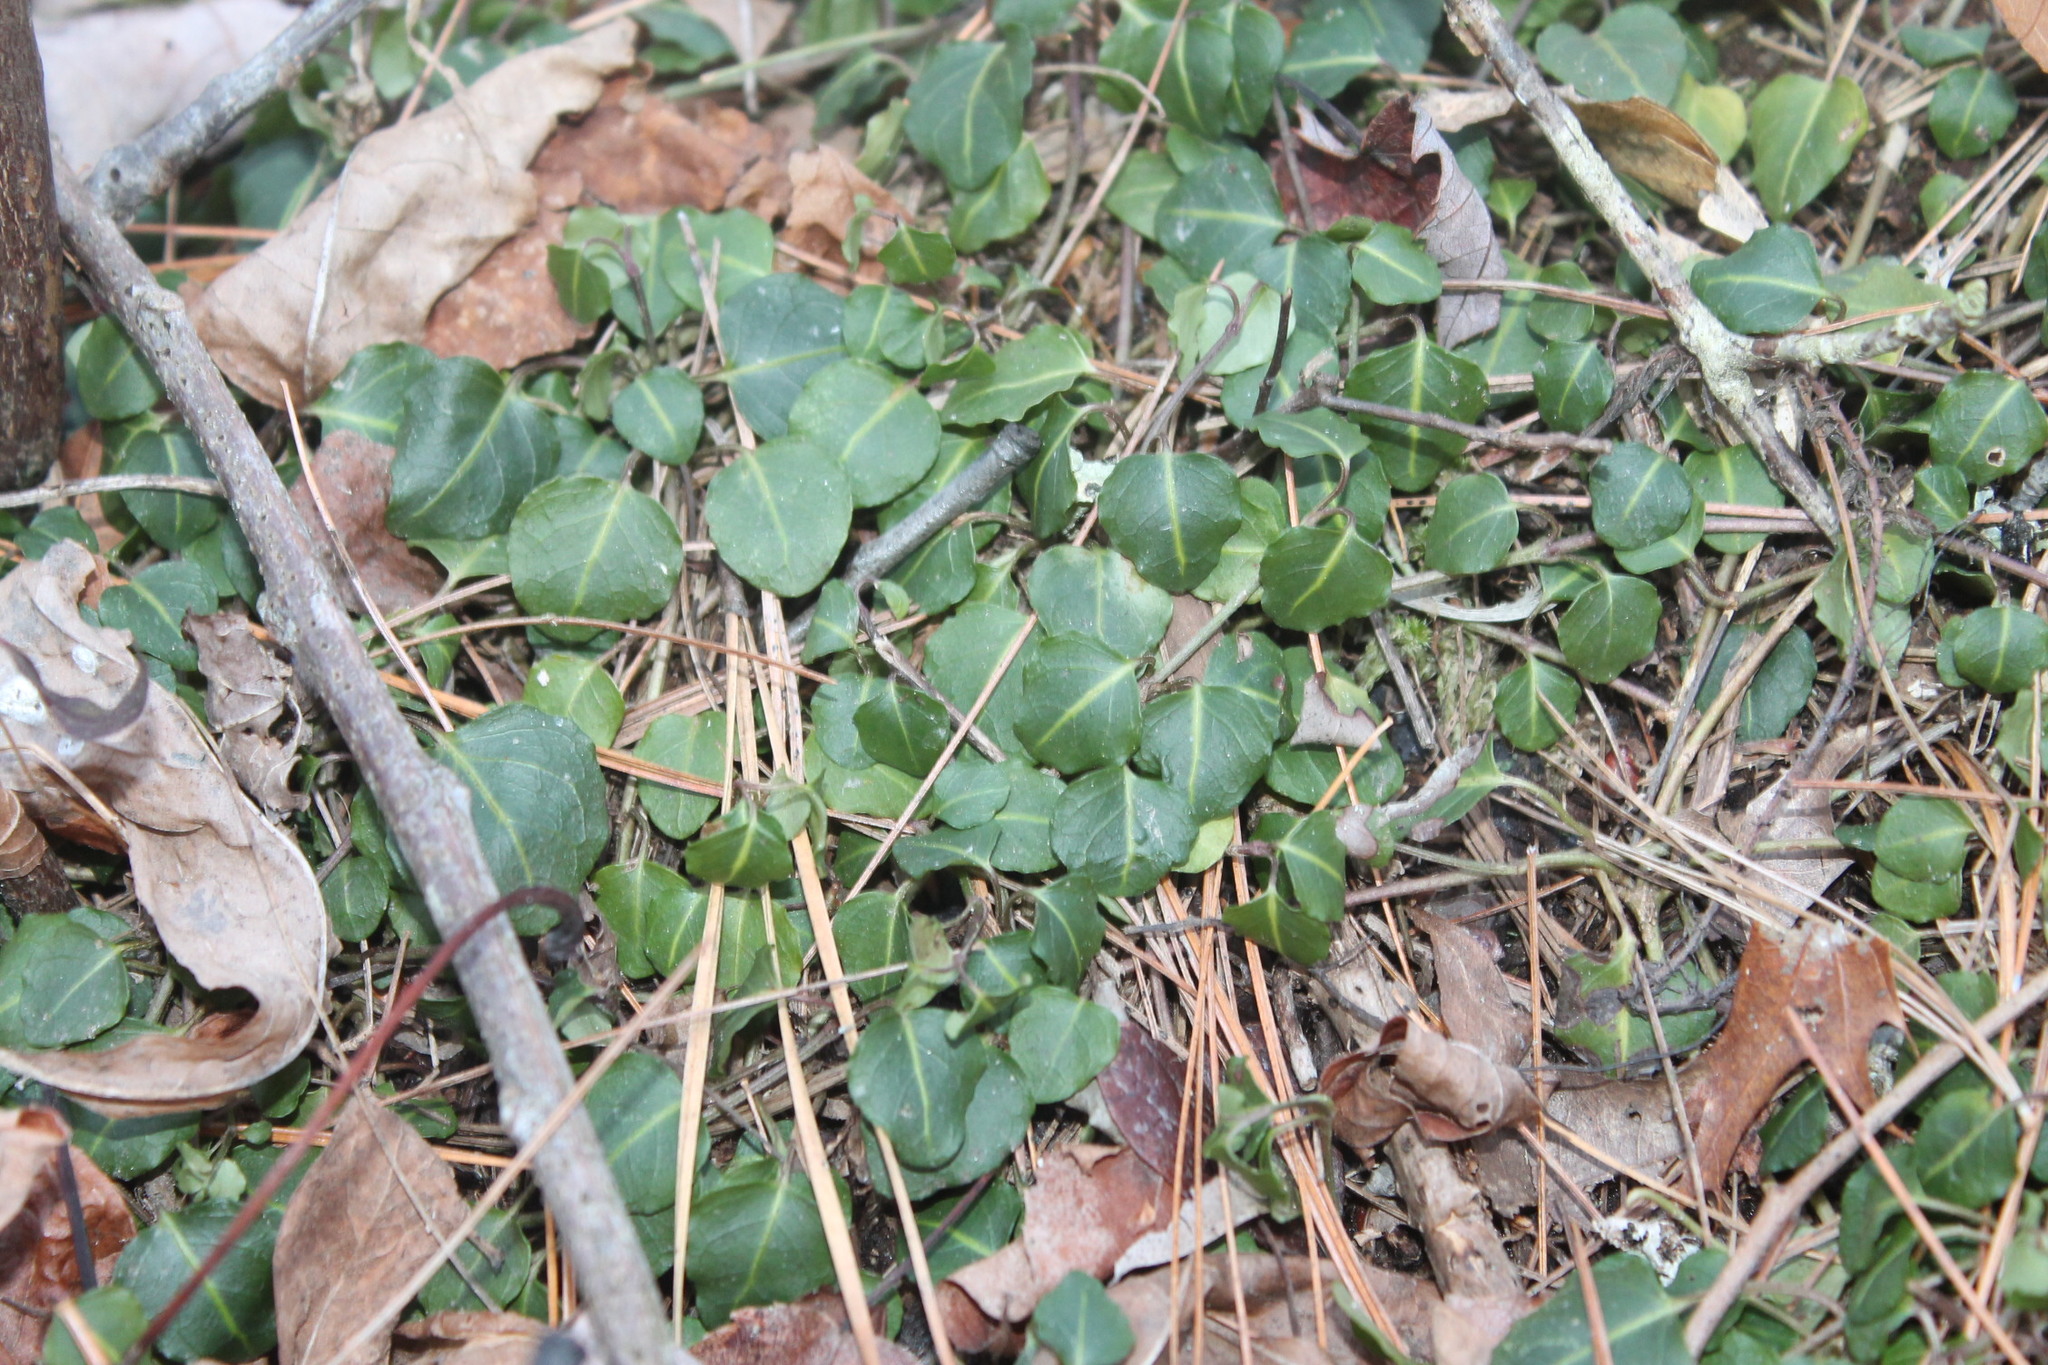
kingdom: Plantae
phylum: Tracheophyta
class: Magnoliopsida
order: Gentianales
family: Rubiaceae
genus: Mitchella
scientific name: Mitchella repens
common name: Partridge-berry
